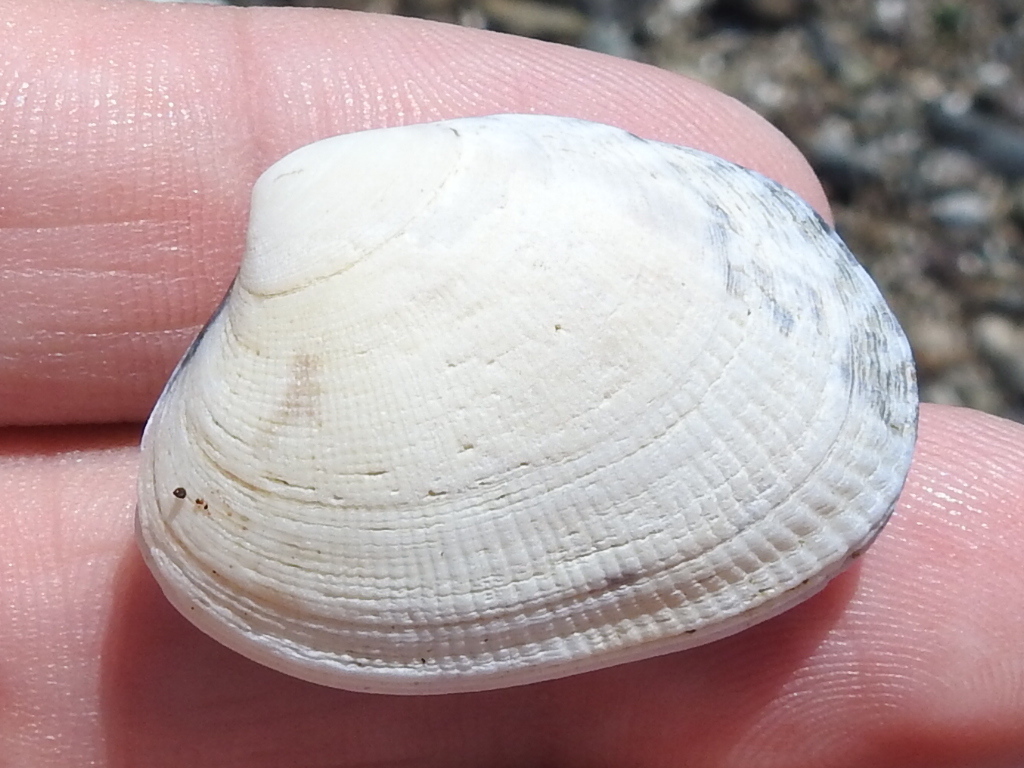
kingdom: Animalia
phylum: Mollusca
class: Bivalvia
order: Venerida
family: Veneridae
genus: Ruditapes
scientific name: Ruditapes philippinarum
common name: Manila clam
